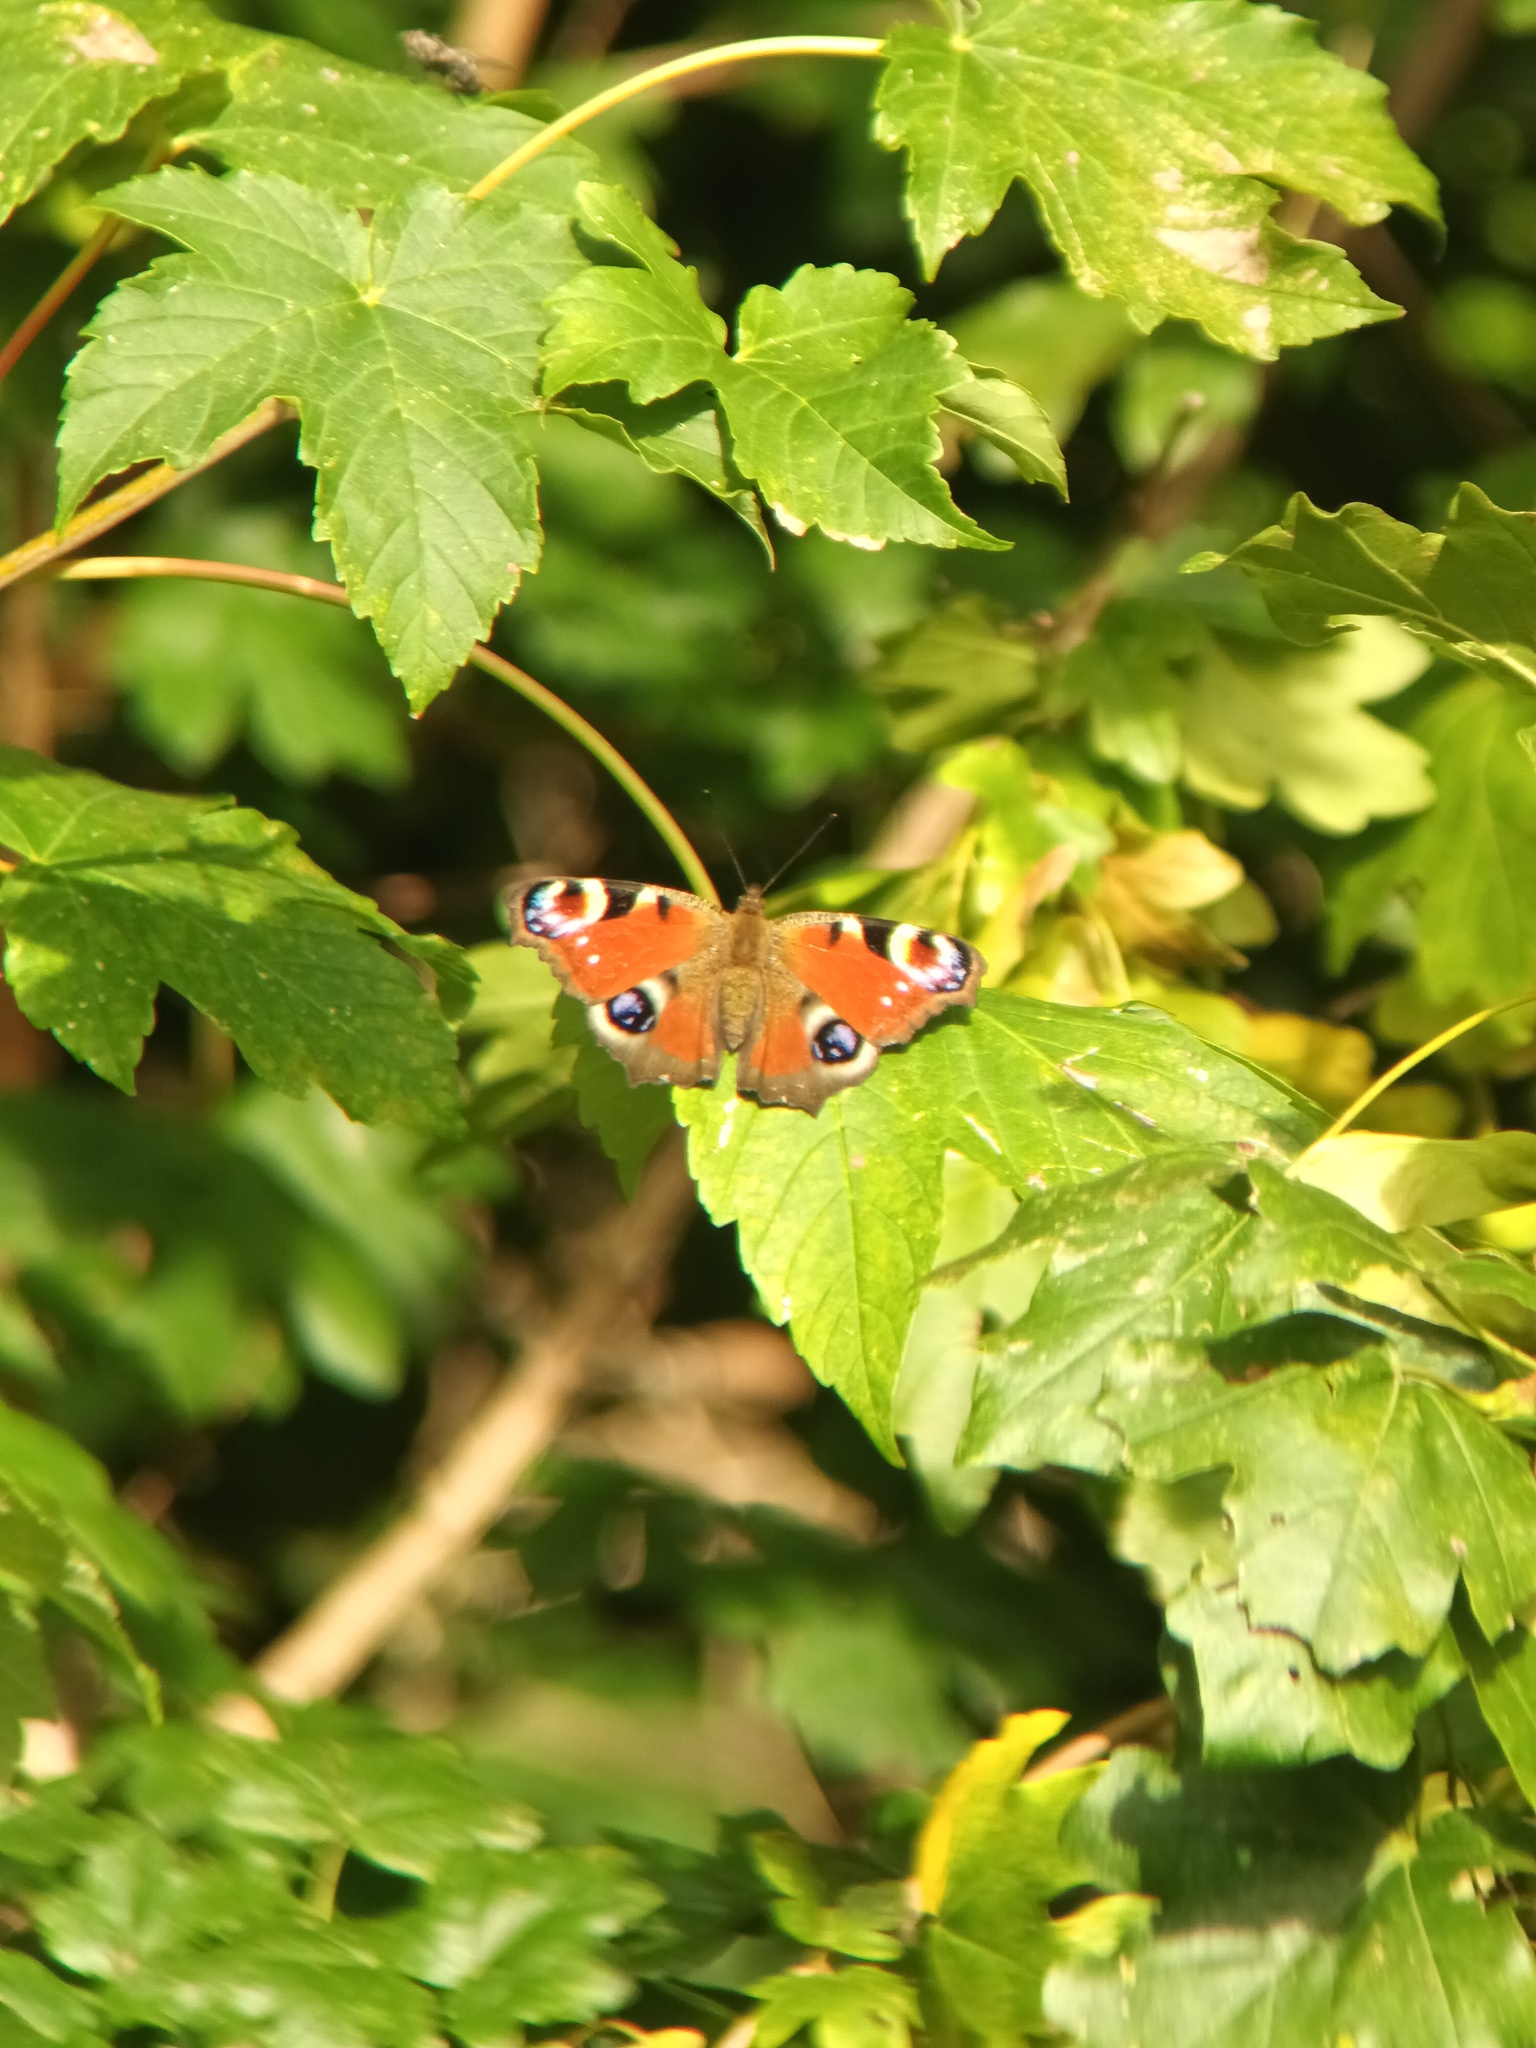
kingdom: Animalia
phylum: Arthropoda
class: Insecta
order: Lepidoptera
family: Nymphalidae
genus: Aglais
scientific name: Aglais io
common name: Peacock
